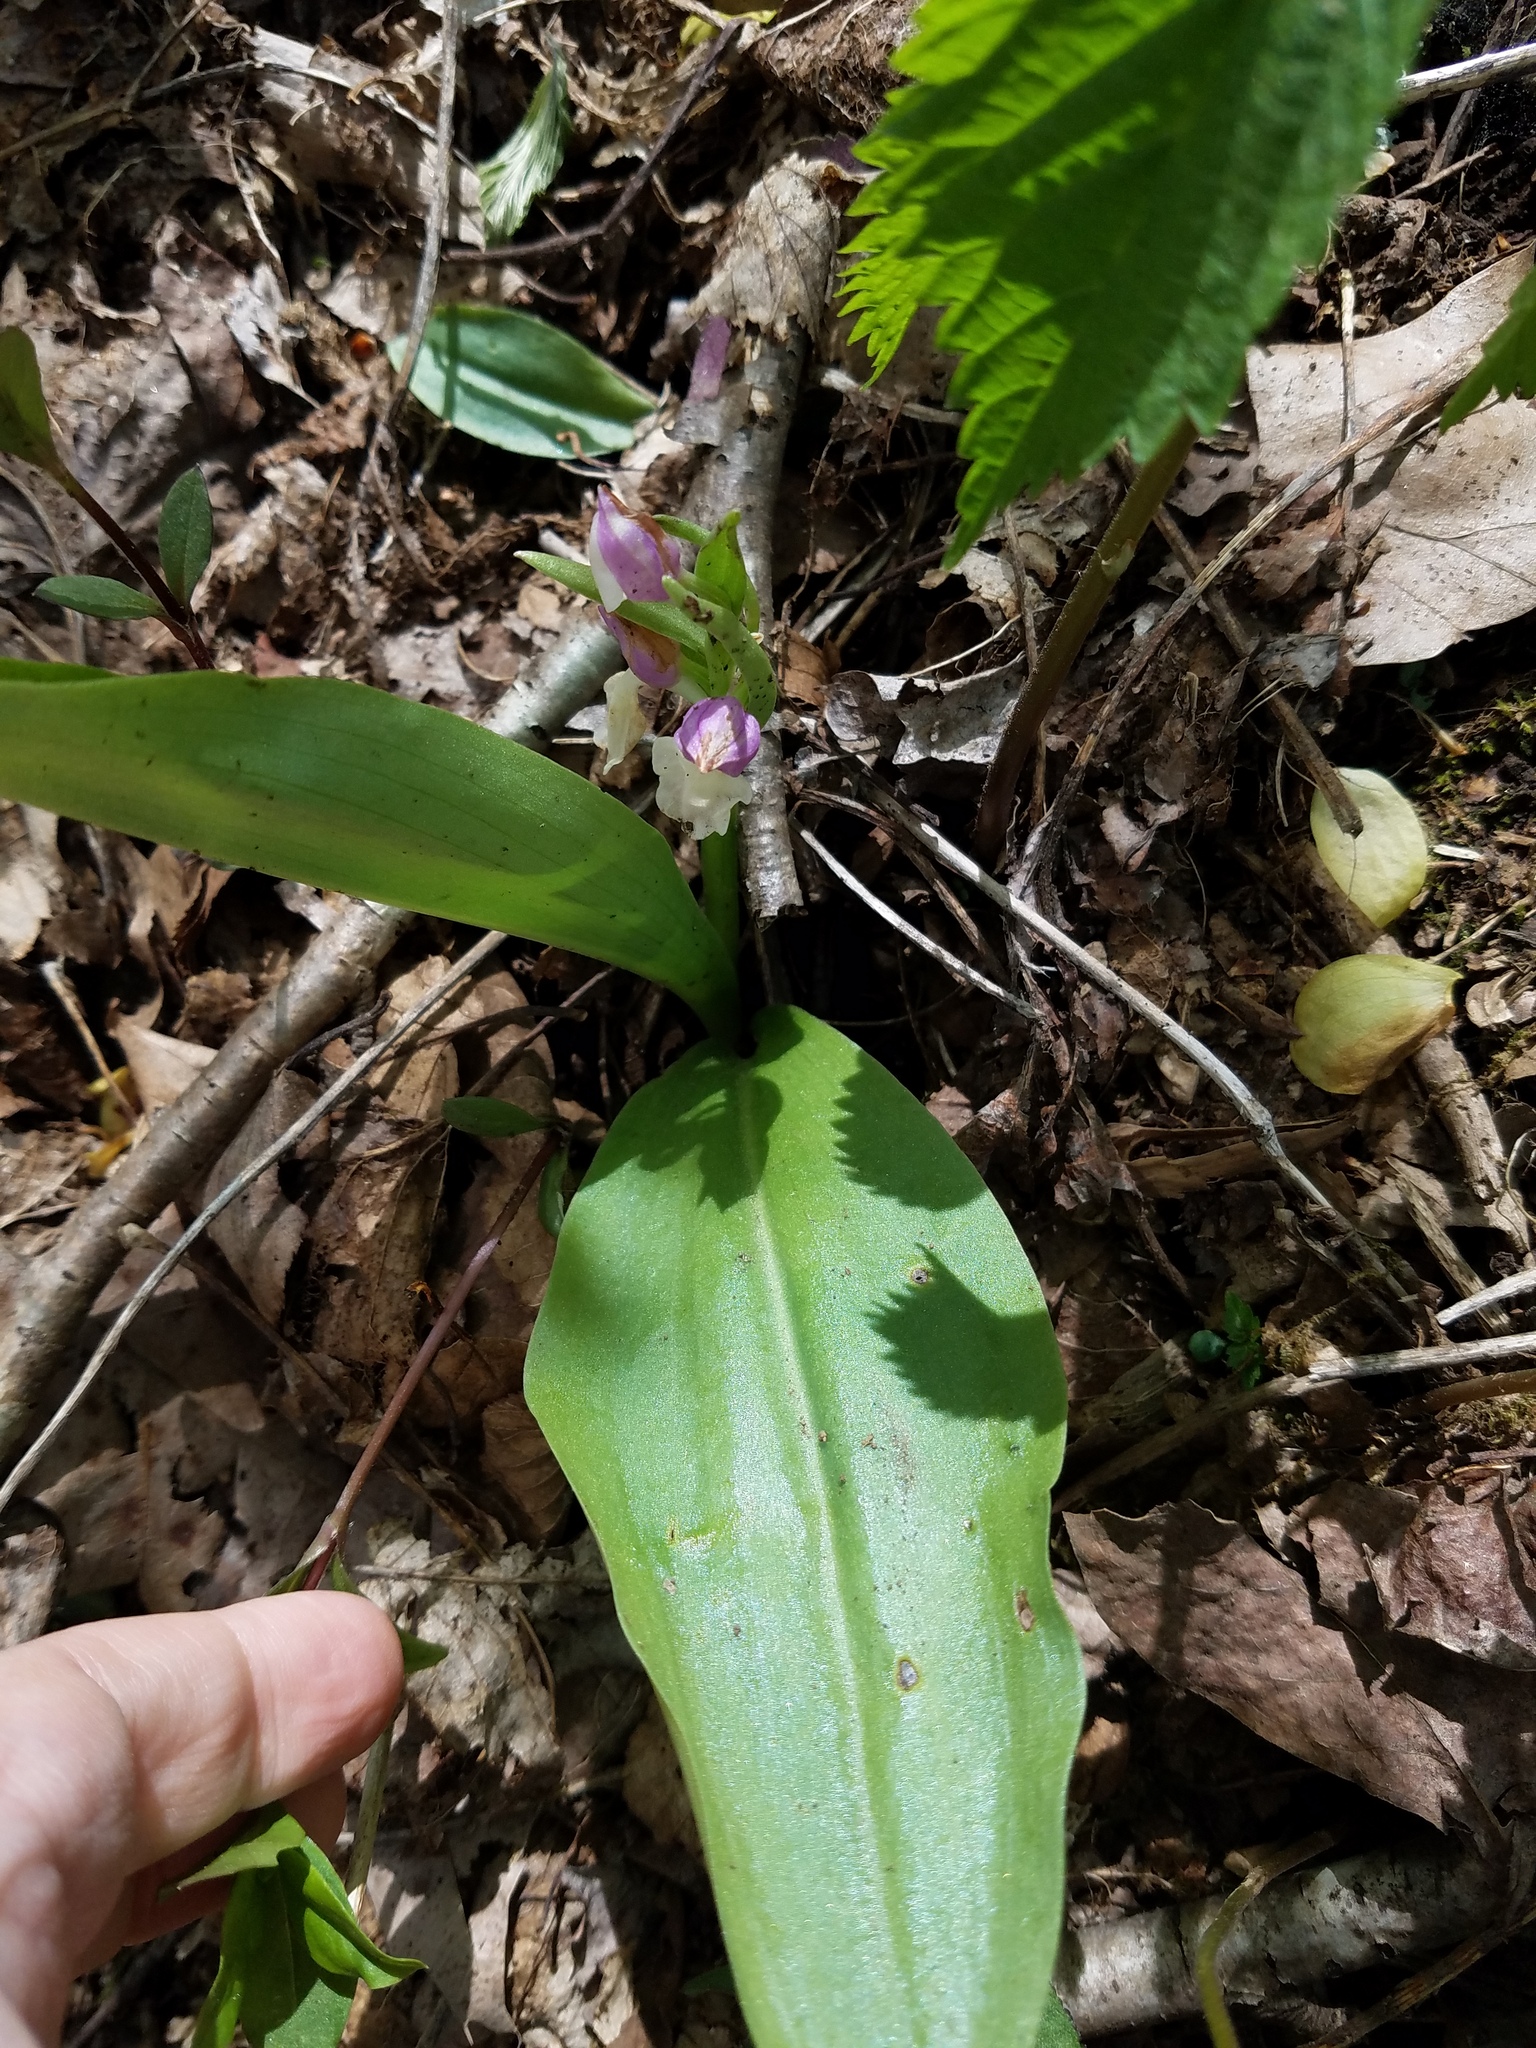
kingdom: Plantae
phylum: Tracheophyta
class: Liliopsida
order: Asparagales
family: Orchidaceae
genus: Galearis
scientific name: Galearis spectabilis
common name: Purple-hooded orchis
